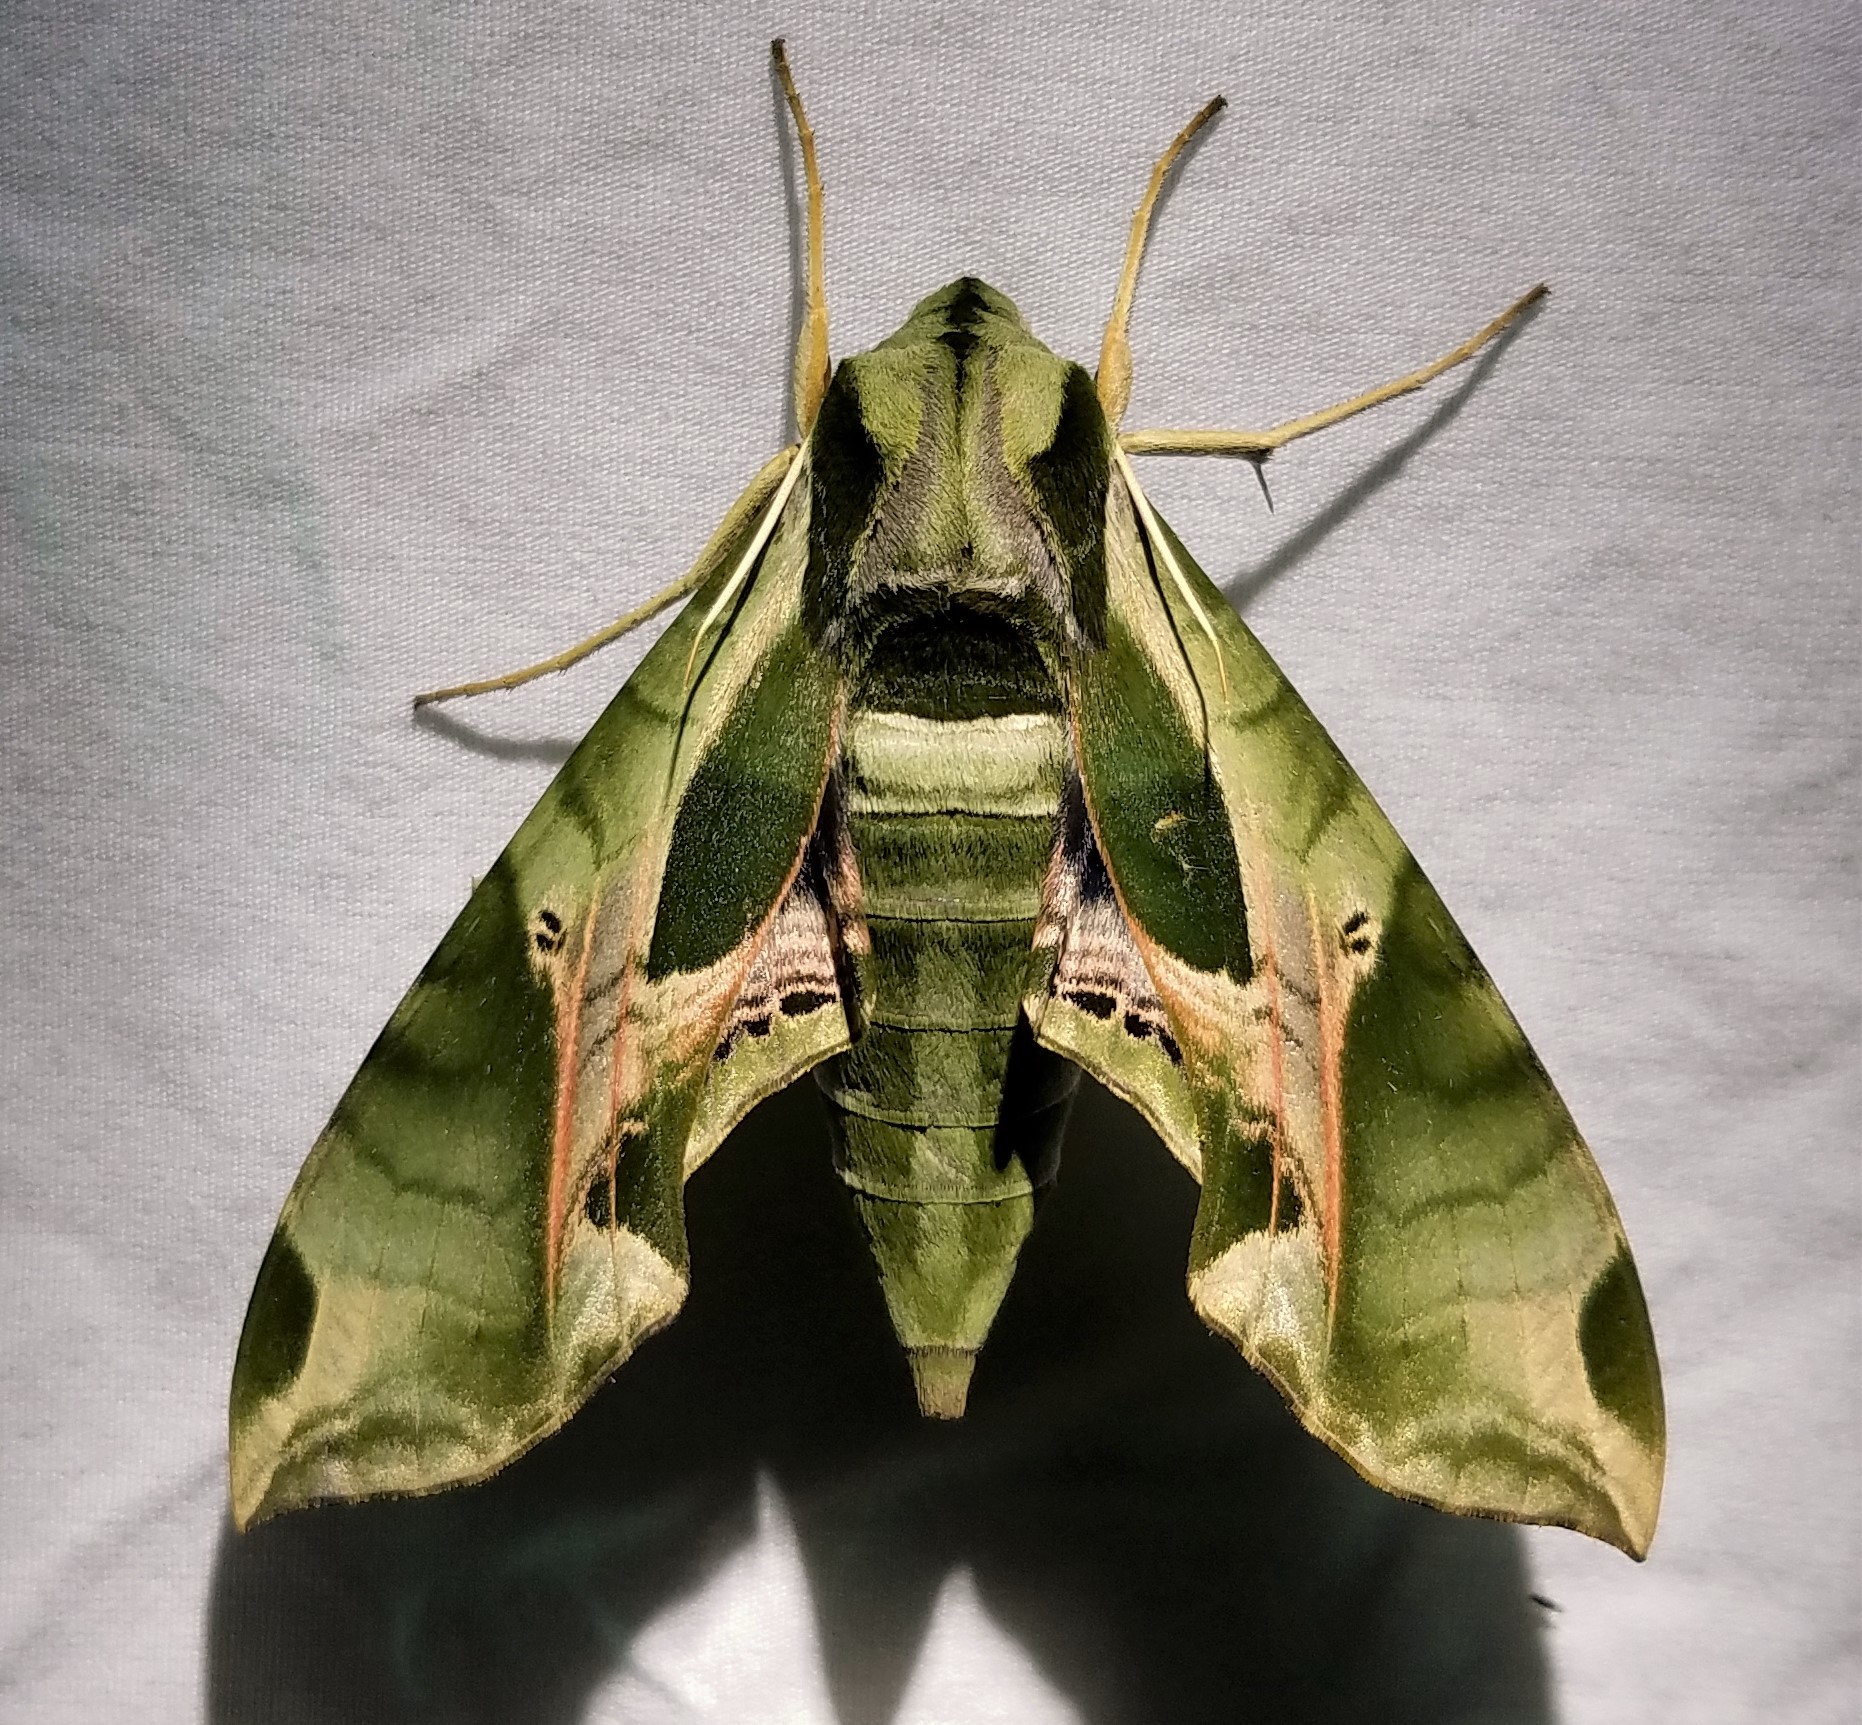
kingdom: Animalia
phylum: Arthropoda
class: Insecta
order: Lepidoptera
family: Sphingidae
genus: Eumorpha
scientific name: Eumorpha pandorus
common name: Pandora sphinx
